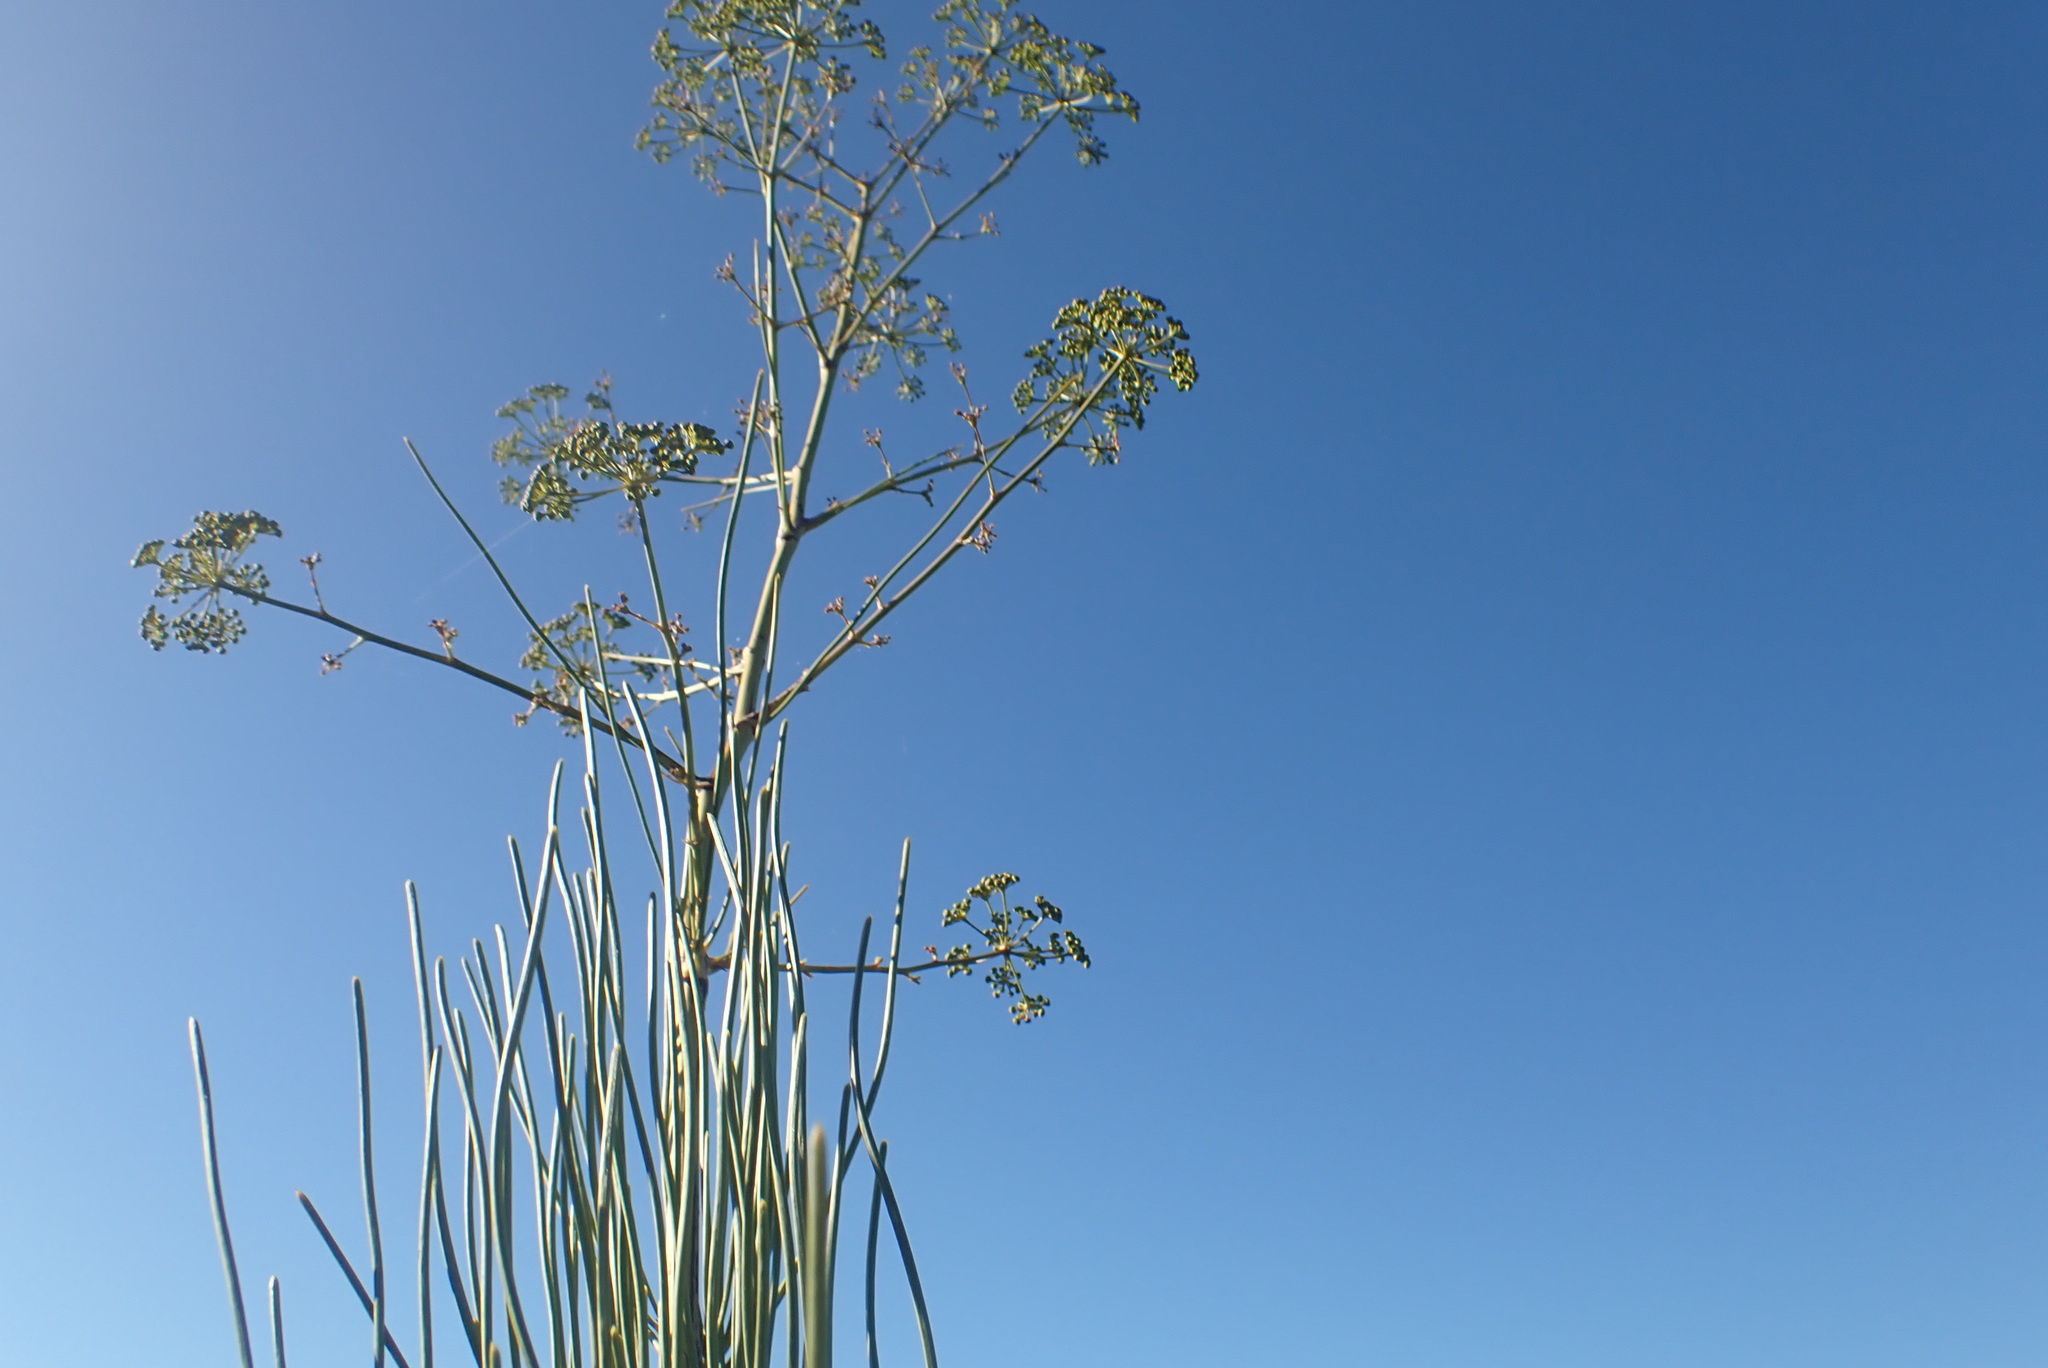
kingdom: Plantae
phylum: Tracheophyta
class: Magnoliopsida
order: Apiales
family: Apiaceae
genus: Anginon
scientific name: Anginon difforme
